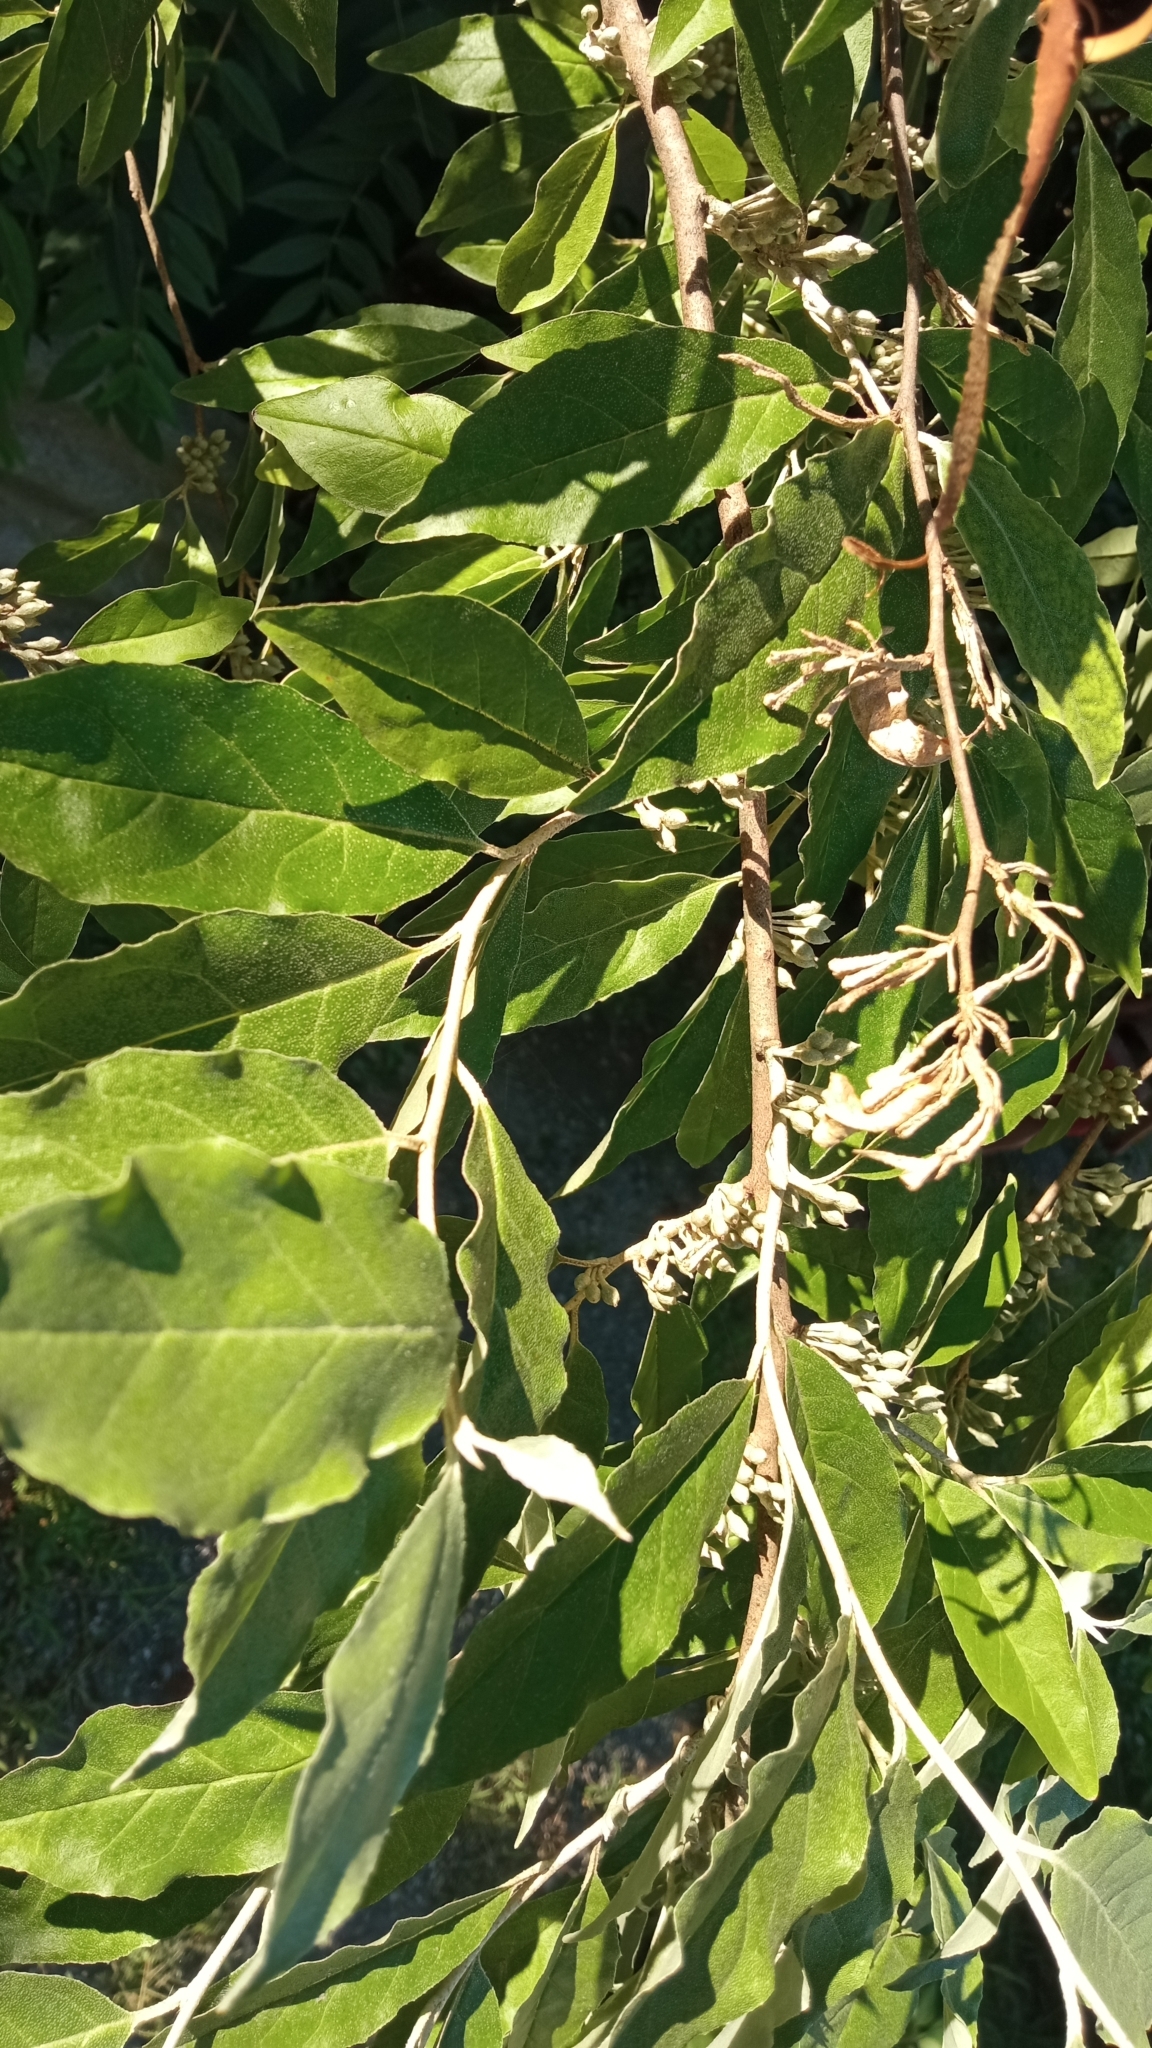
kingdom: Plantae
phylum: Tracheophyta
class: Magnoliopsida
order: Rosales
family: Elaeagnaceae
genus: Elaeagnus
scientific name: Elaeagnus umbellata
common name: Autumn olive
